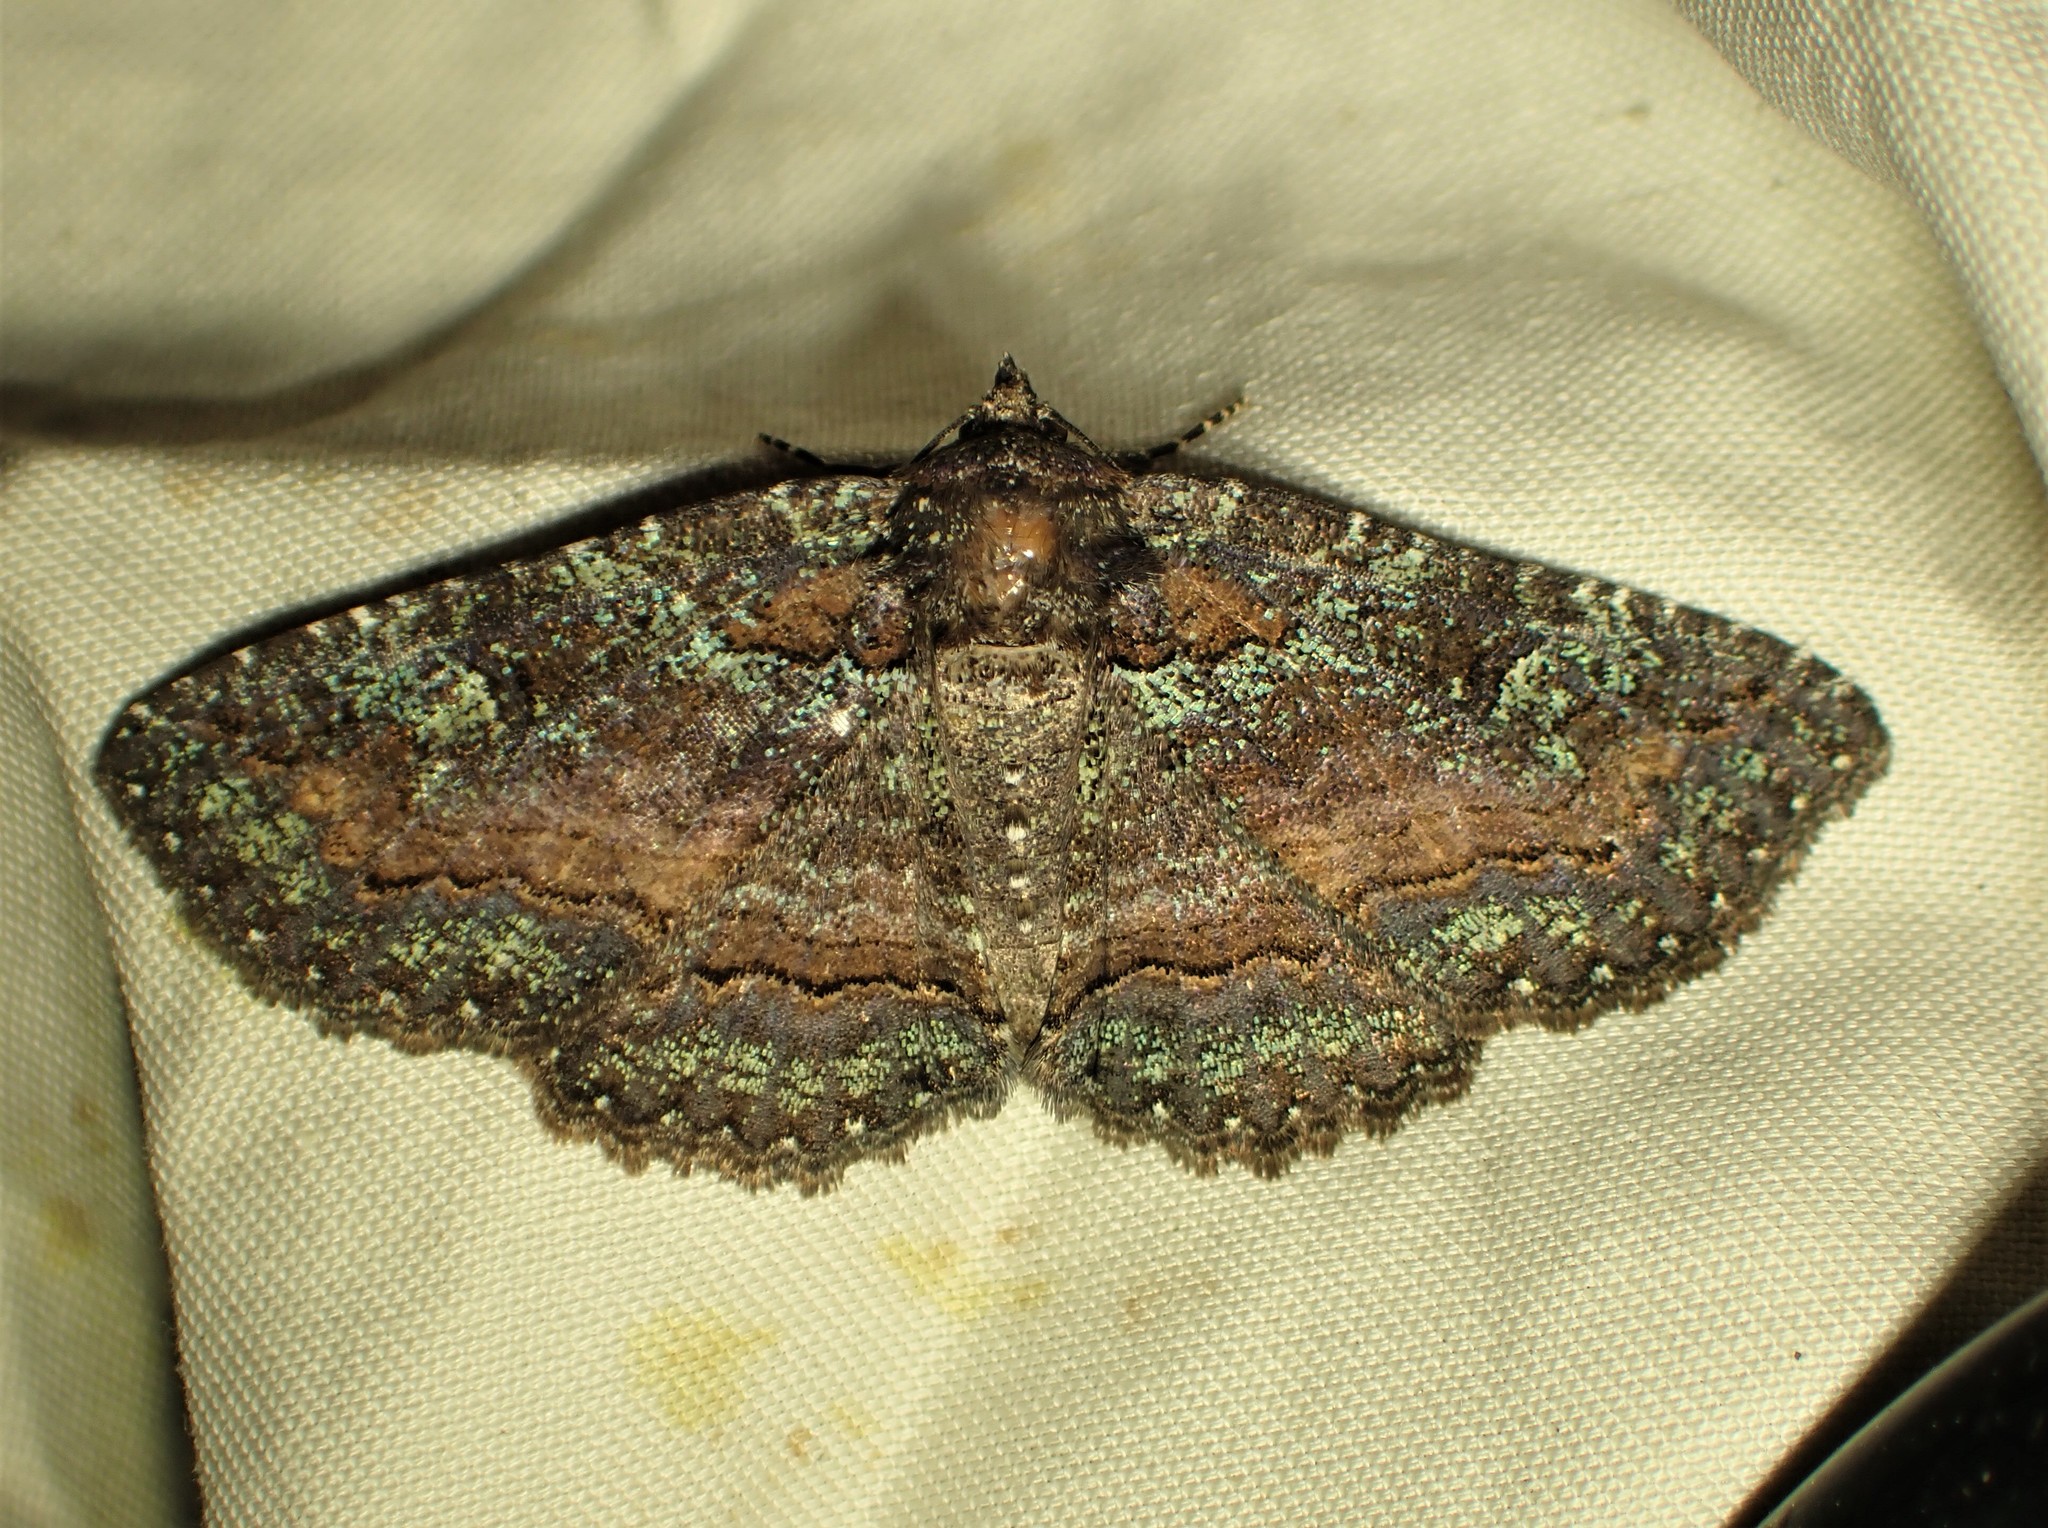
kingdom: Animalia
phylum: Arthropoda
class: Insecta
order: Lepidoptera
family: Erebidae
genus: Zale
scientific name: Zale aeruginosa
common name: Green-dusted zale moth
